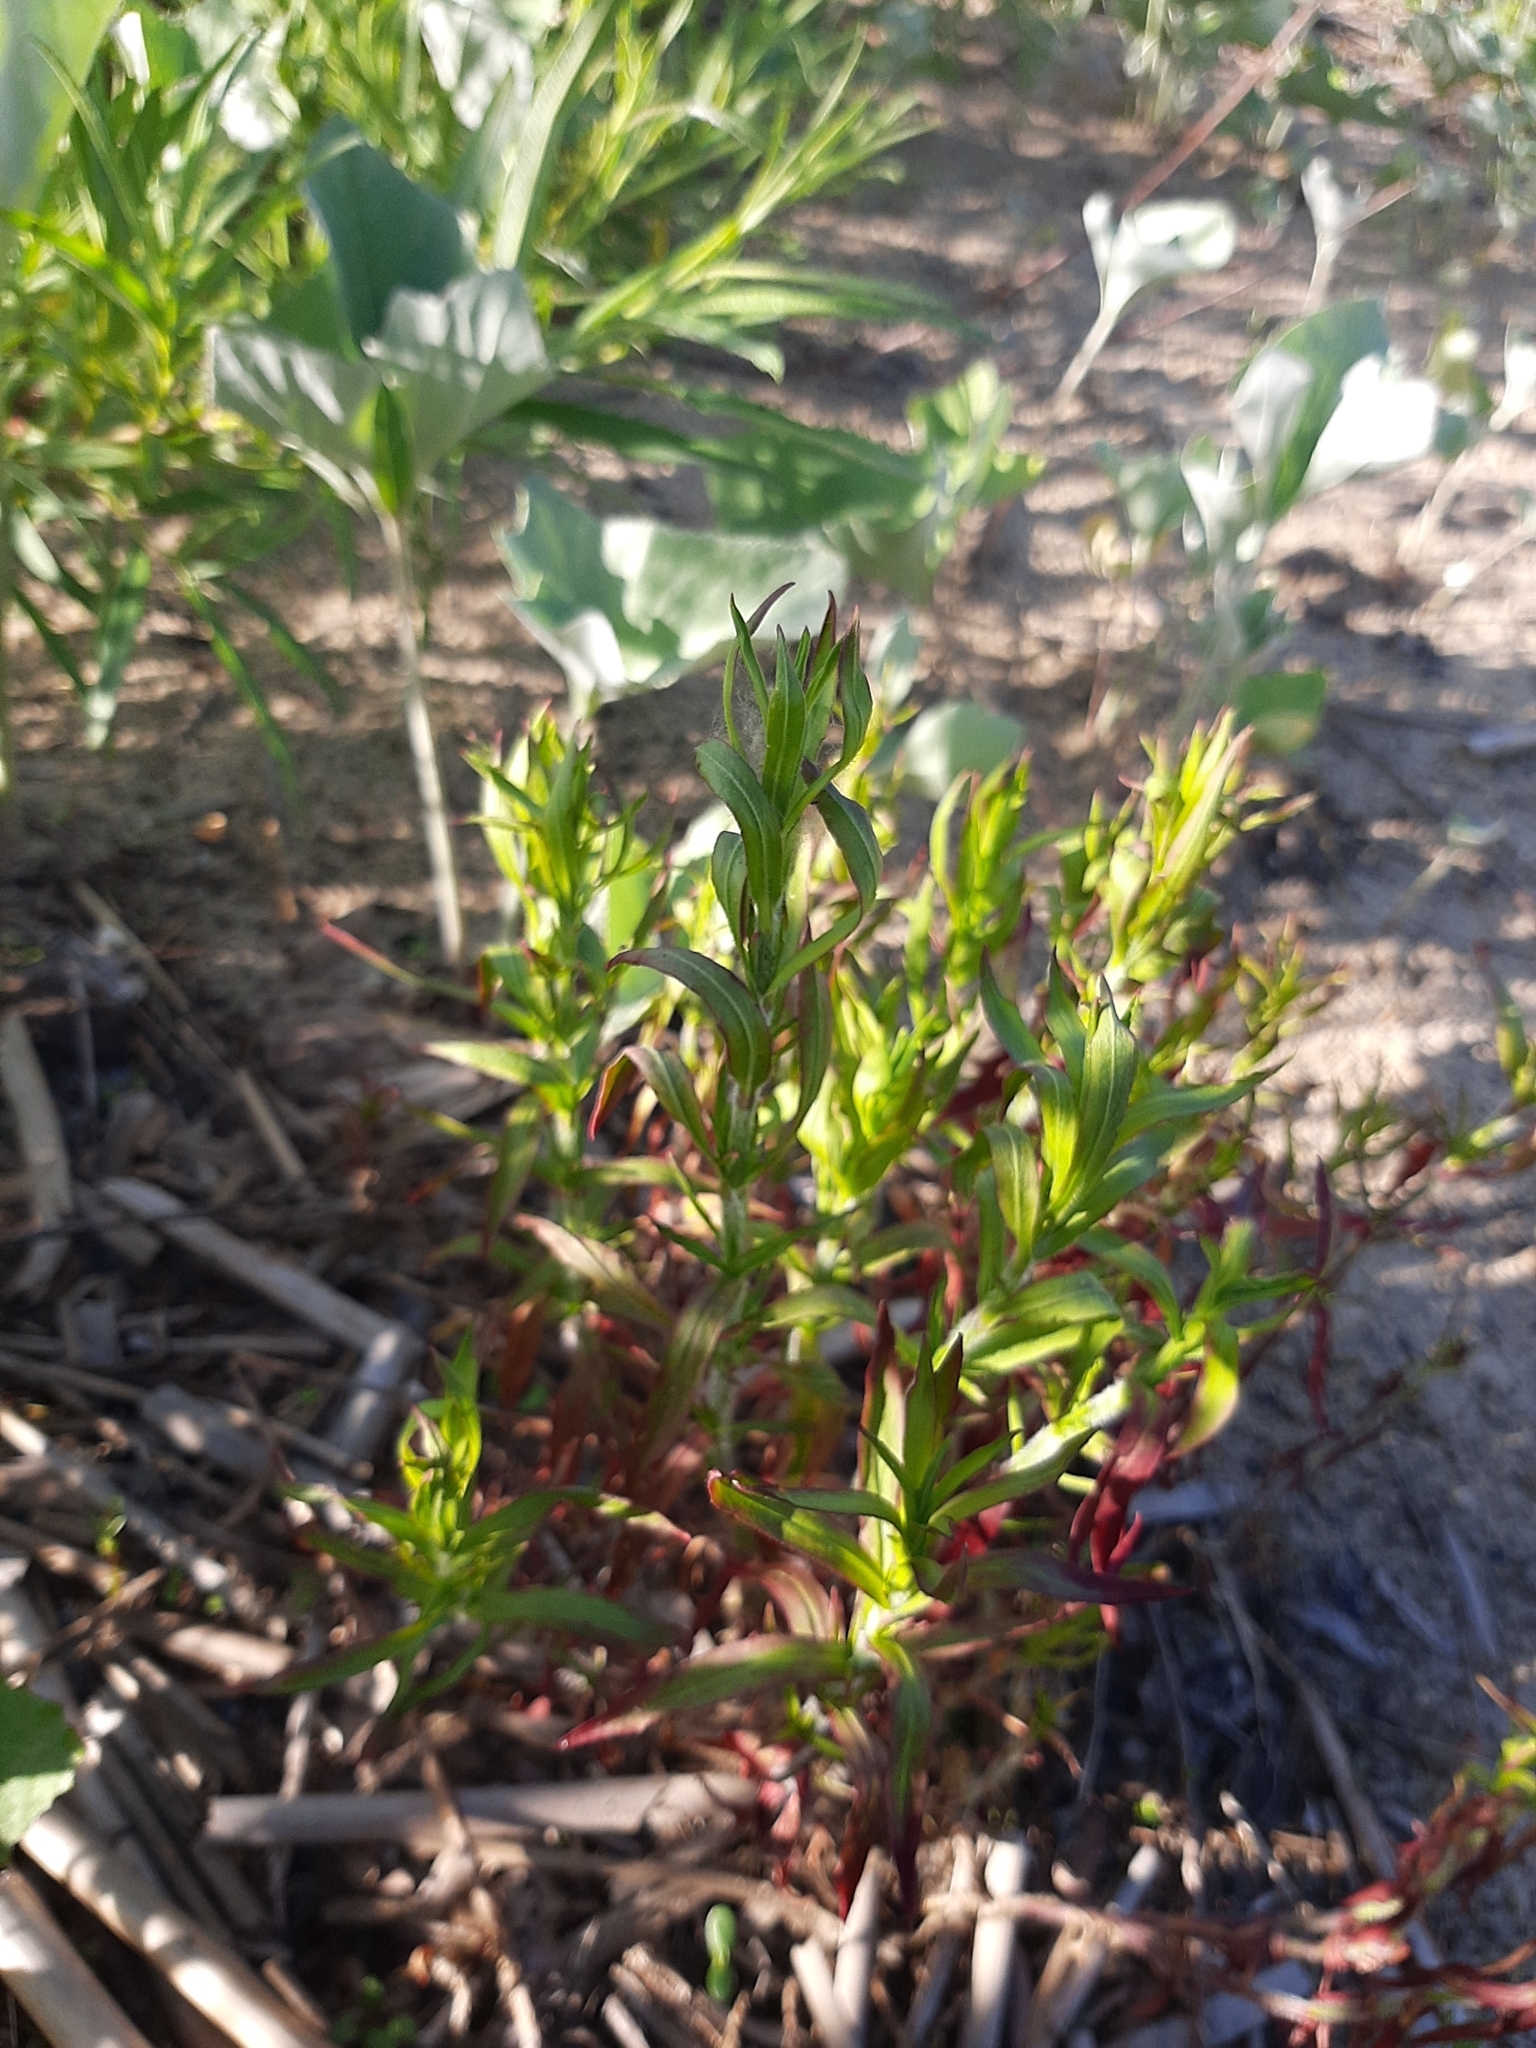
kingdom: Plantae
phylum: Tracheophyta
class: Magnoliopsida
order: Caryophyllales
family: Caryophyllaceae
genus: Silene
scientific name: Silene tatarica
